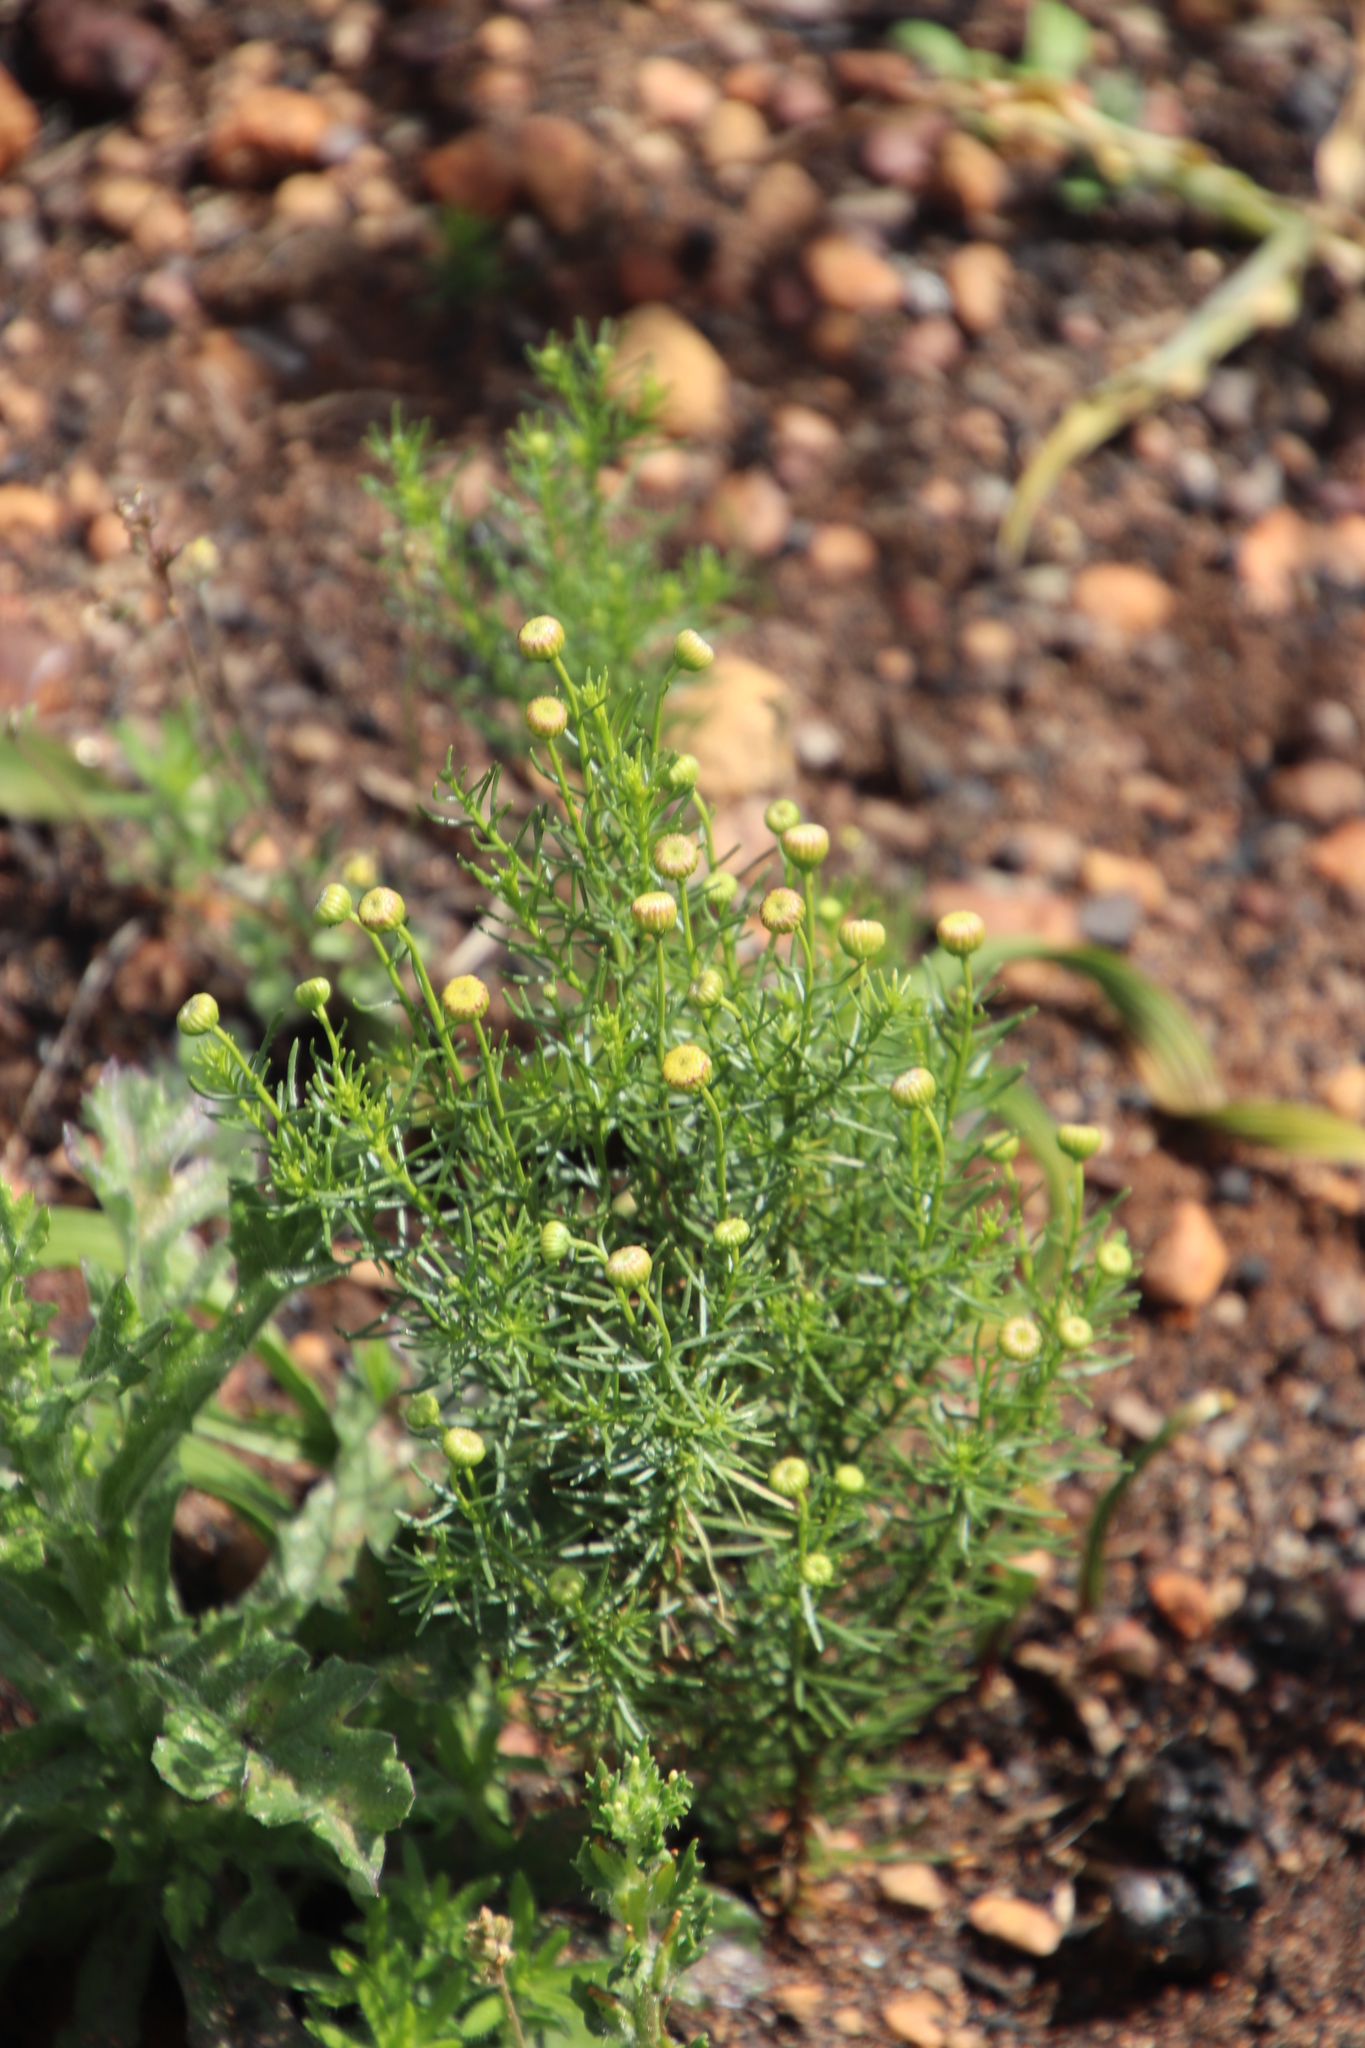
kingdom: Plantae
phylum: Tracheophyta
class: Magnoliopsida
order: Asterales
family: Asteraceae
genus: Chrysocoma
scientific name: Chrysocoma ciliata
